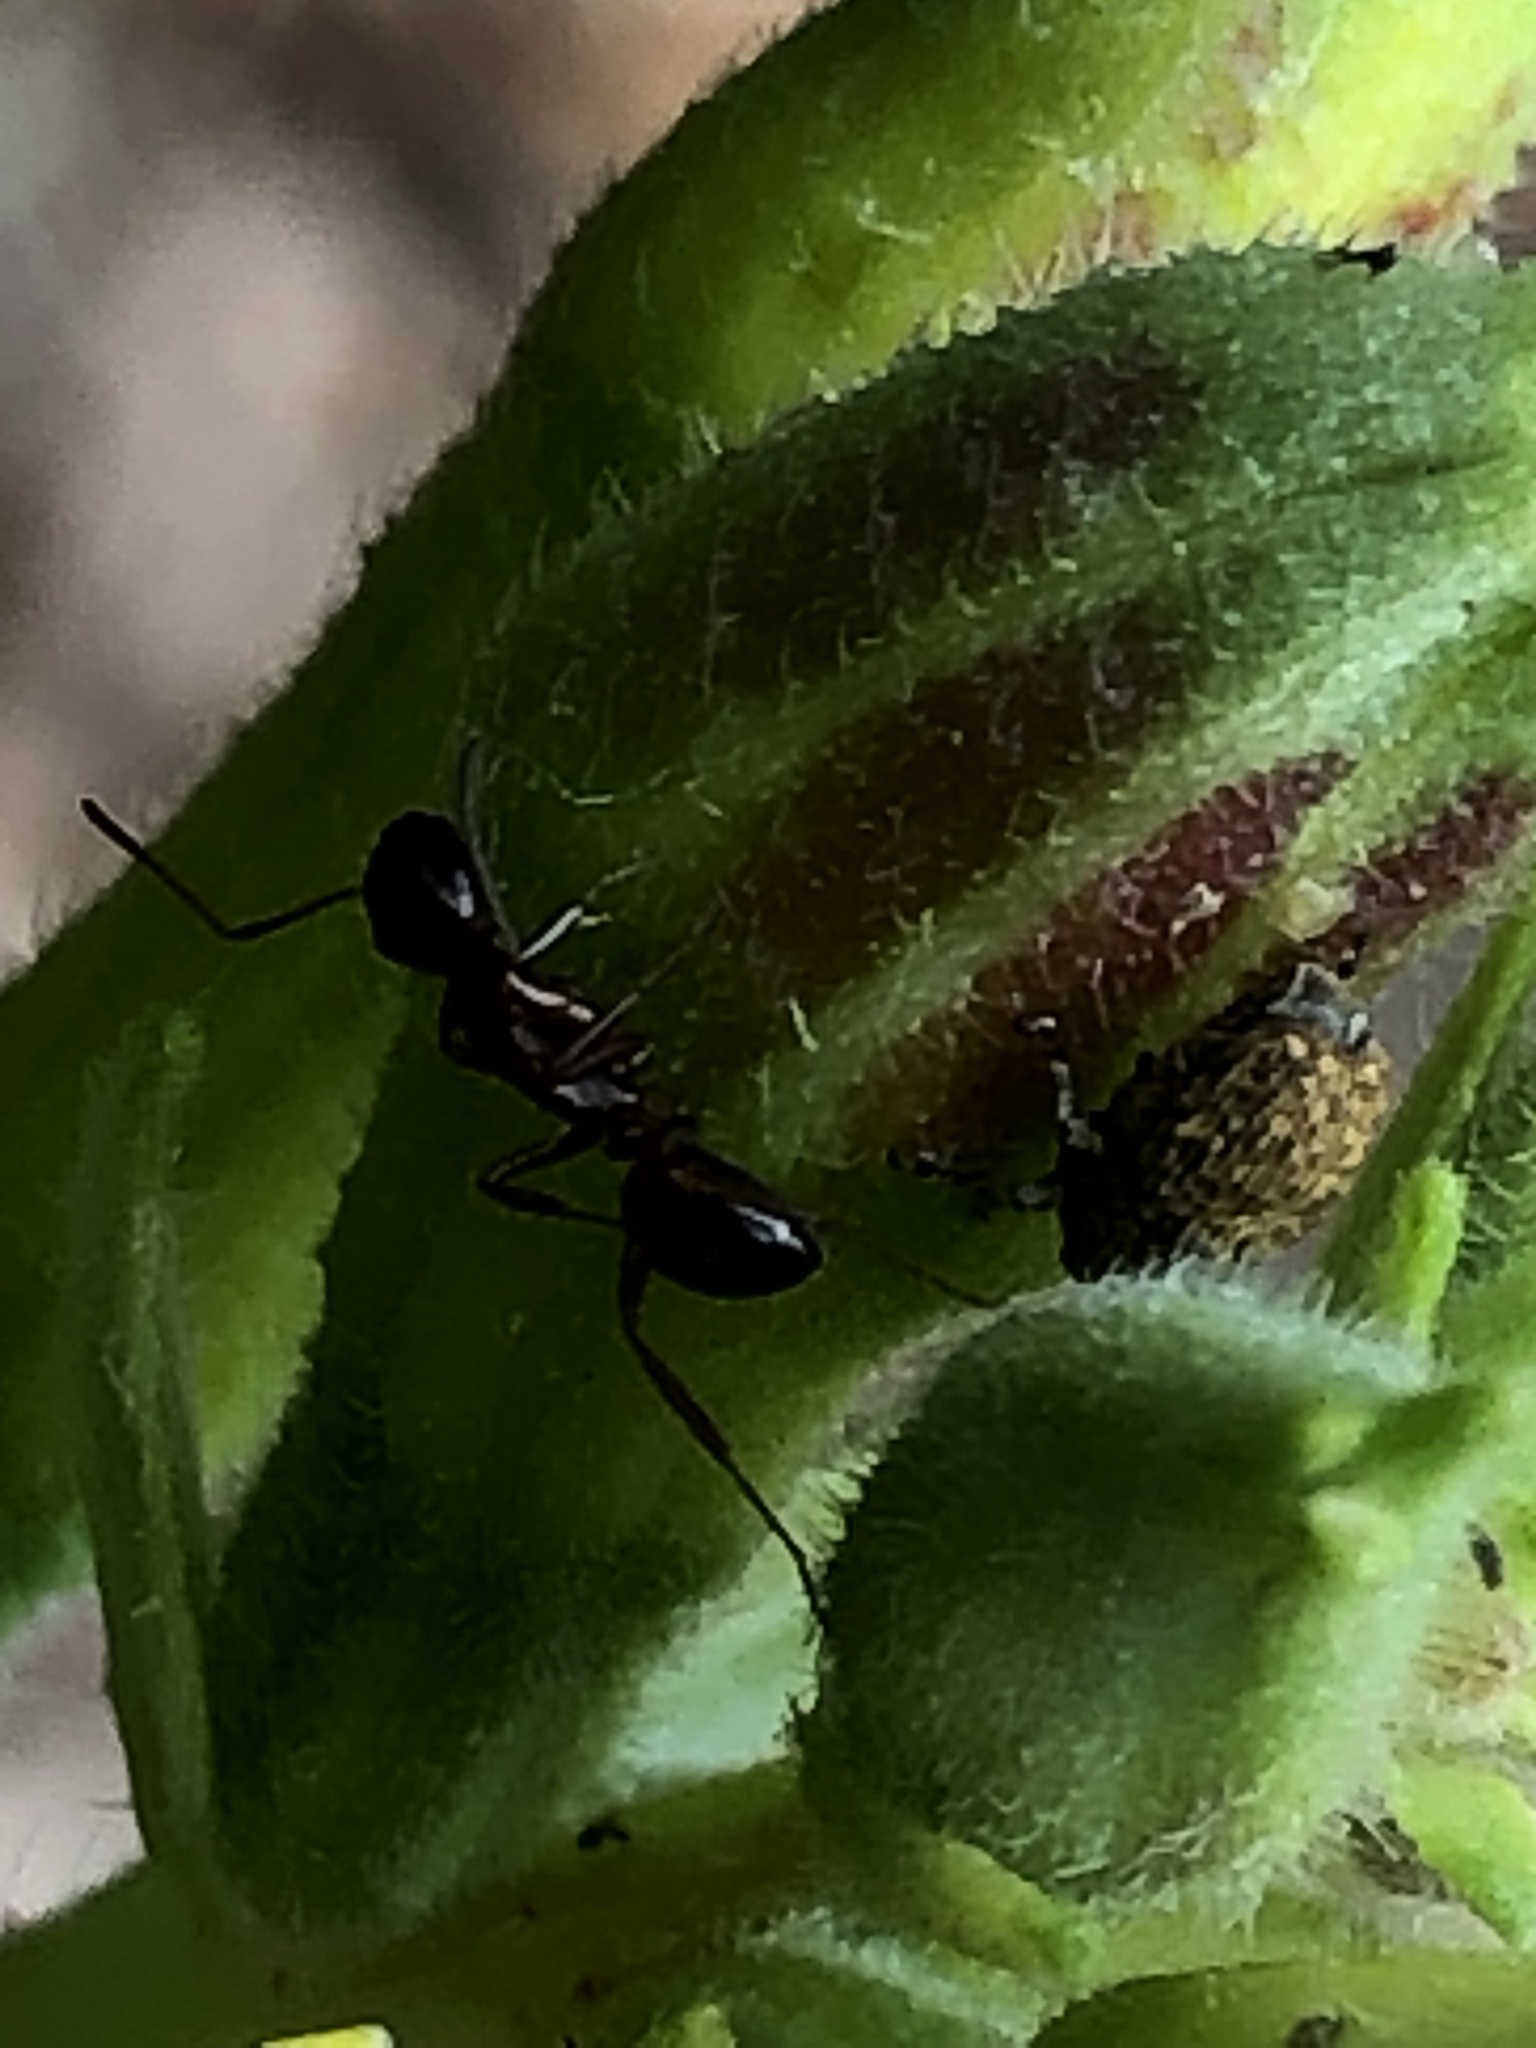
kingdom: Animalia
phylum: Arthropoda
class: Insecta
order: Hymenoptera
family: Formicidae
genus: Camponotus
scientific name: Camponotus subbarbatus
